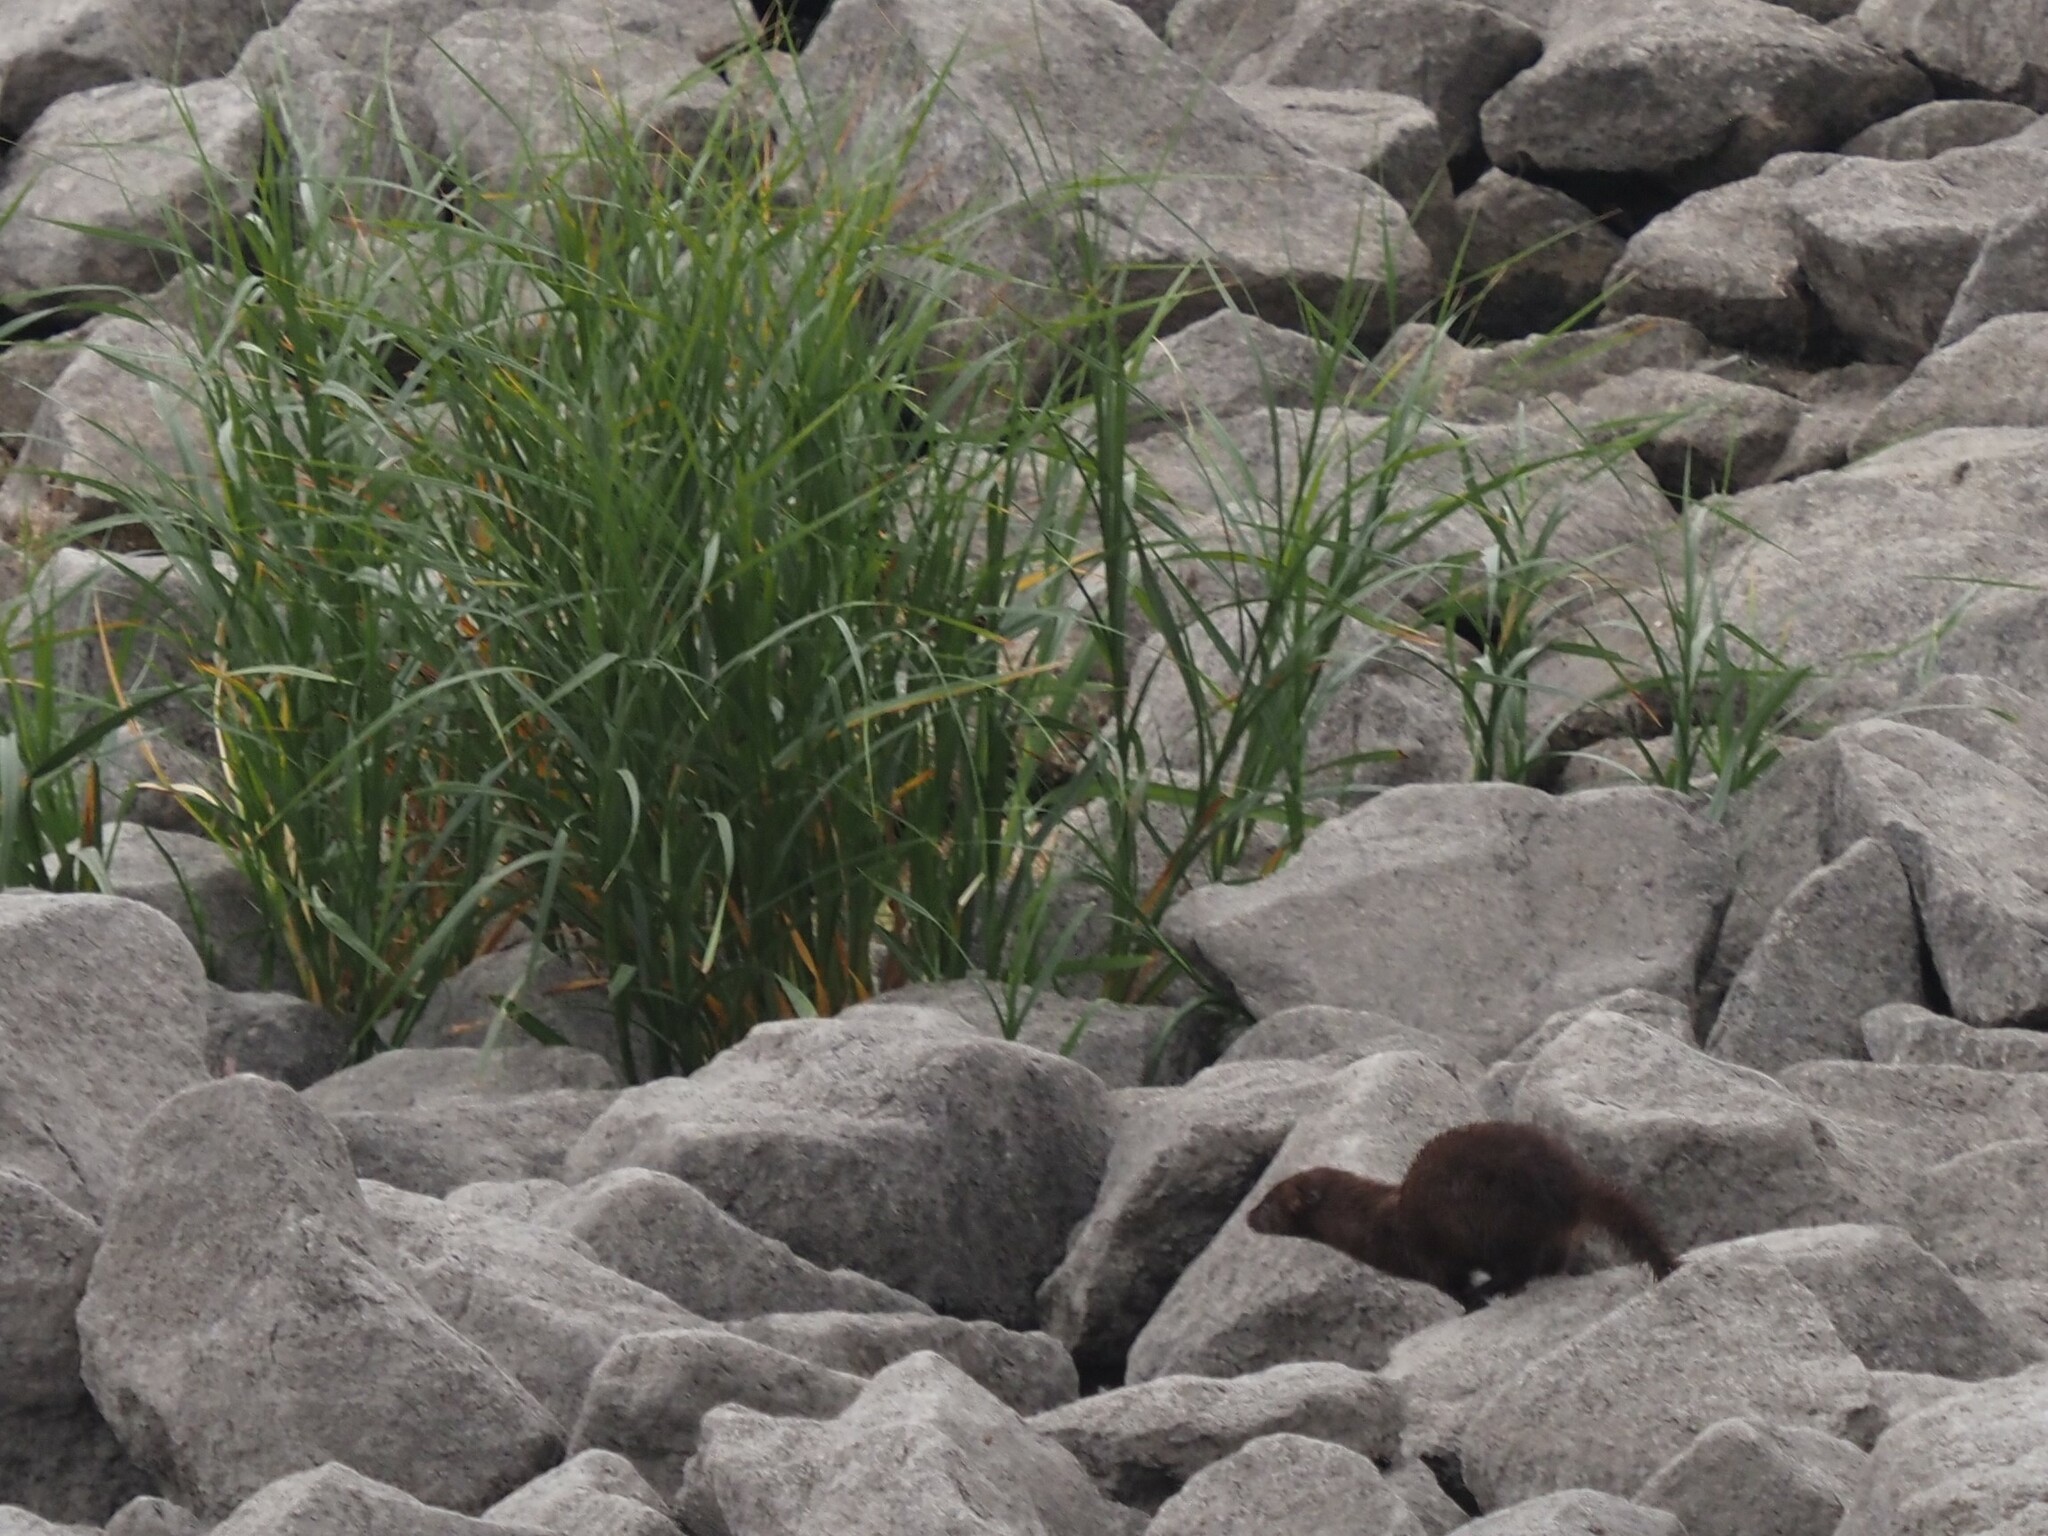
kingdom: Animalia
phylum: Chordata
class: Mammalia
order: Carnivora
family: Mustelidae
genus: Mustela
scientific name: Mustela
